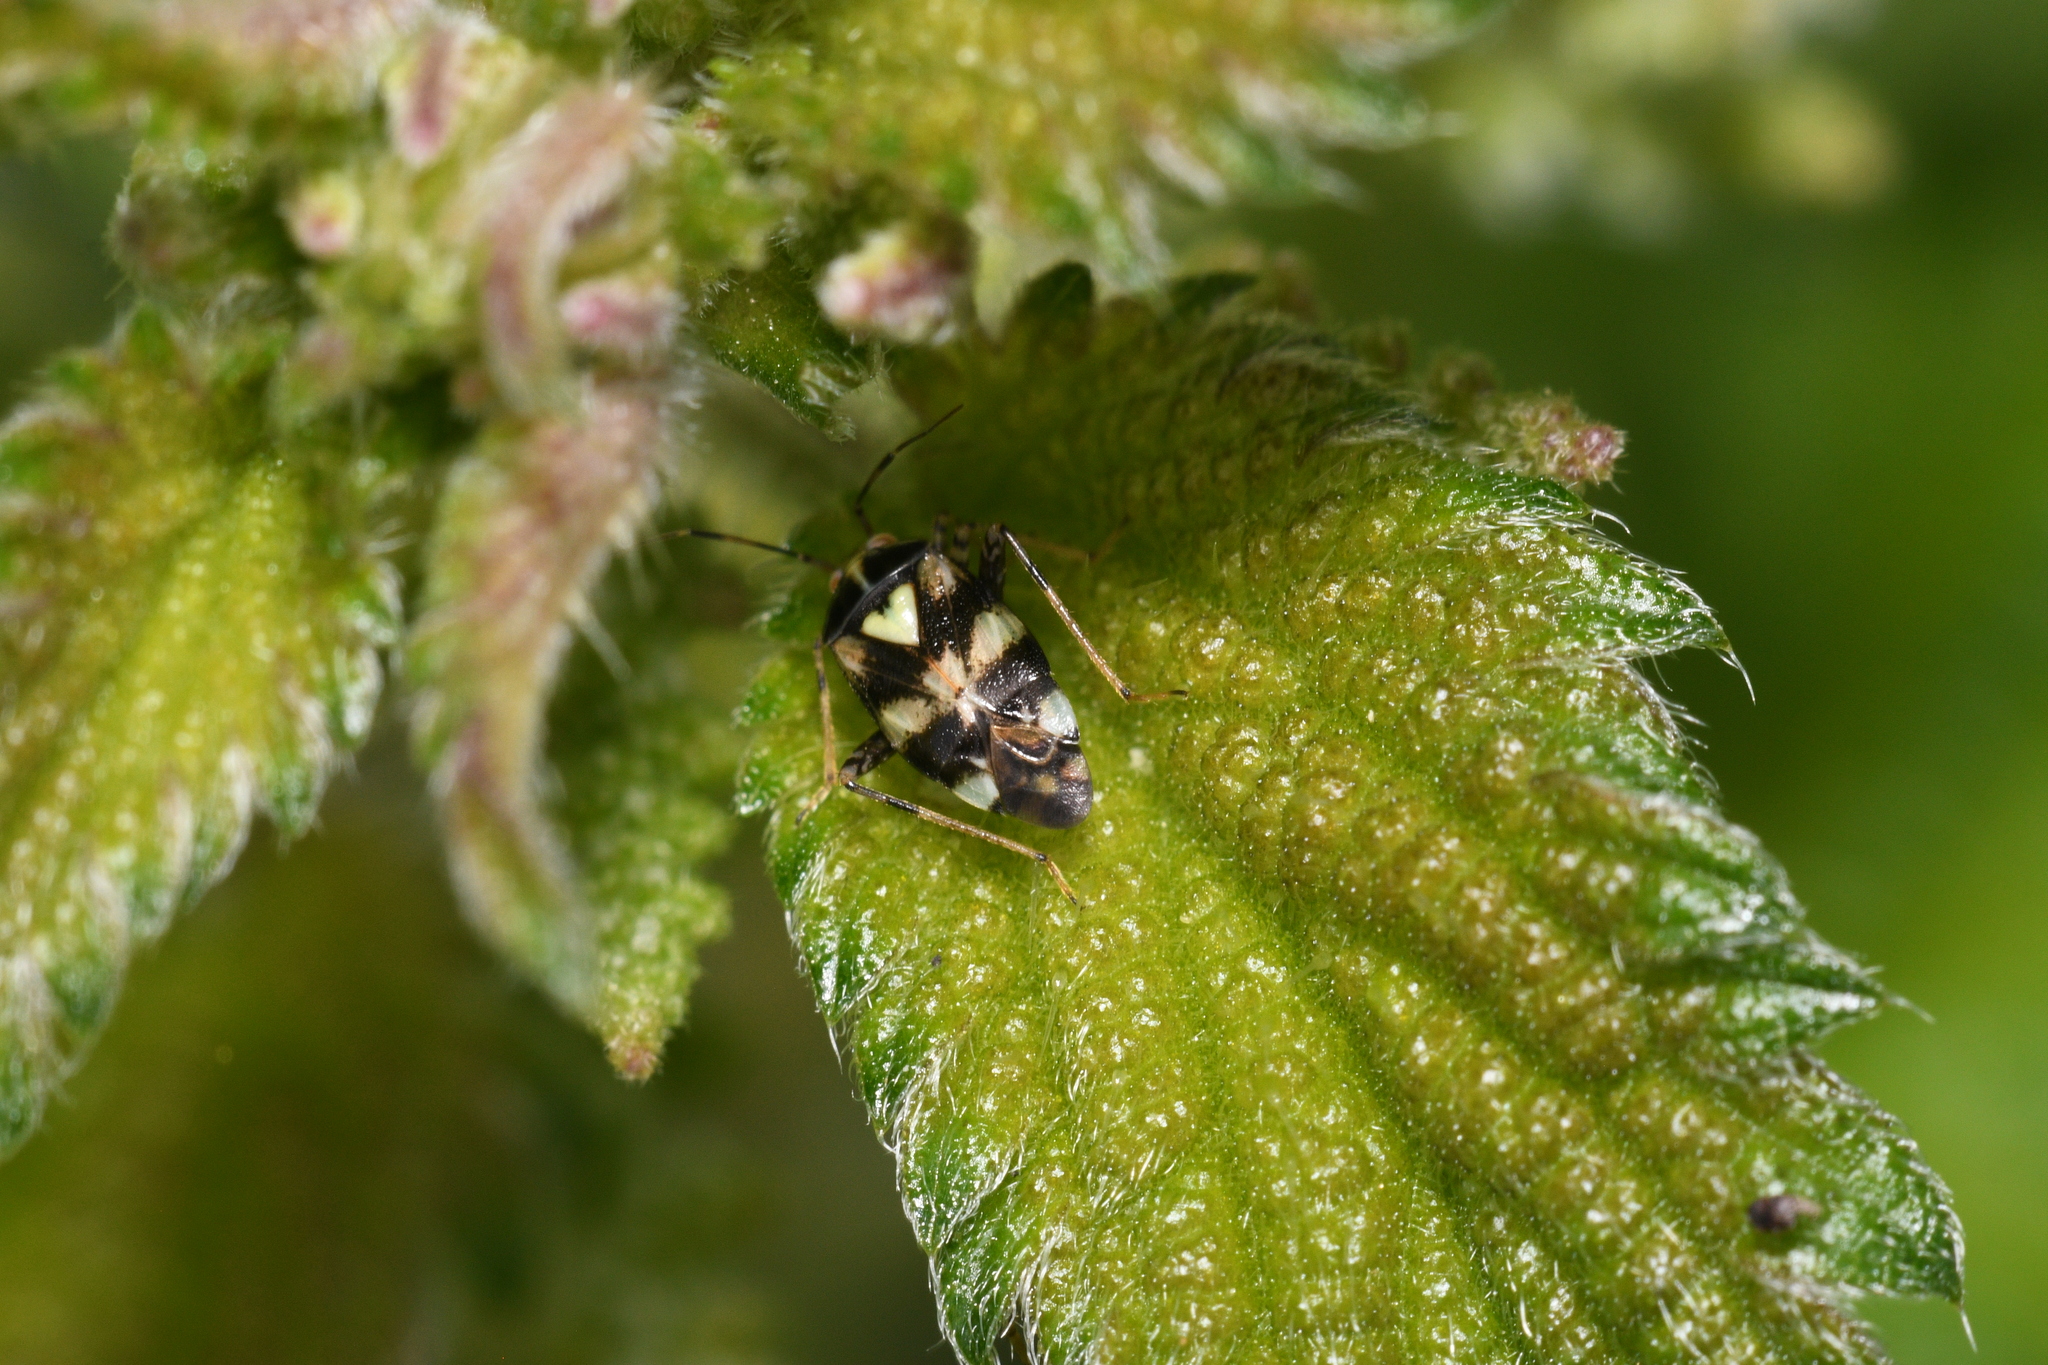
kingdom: Animalia
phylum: Arthropoda
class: Insecta
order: Hemiptera
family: Miridae
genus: Liocoris
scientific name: Liocoris tripustulatus
